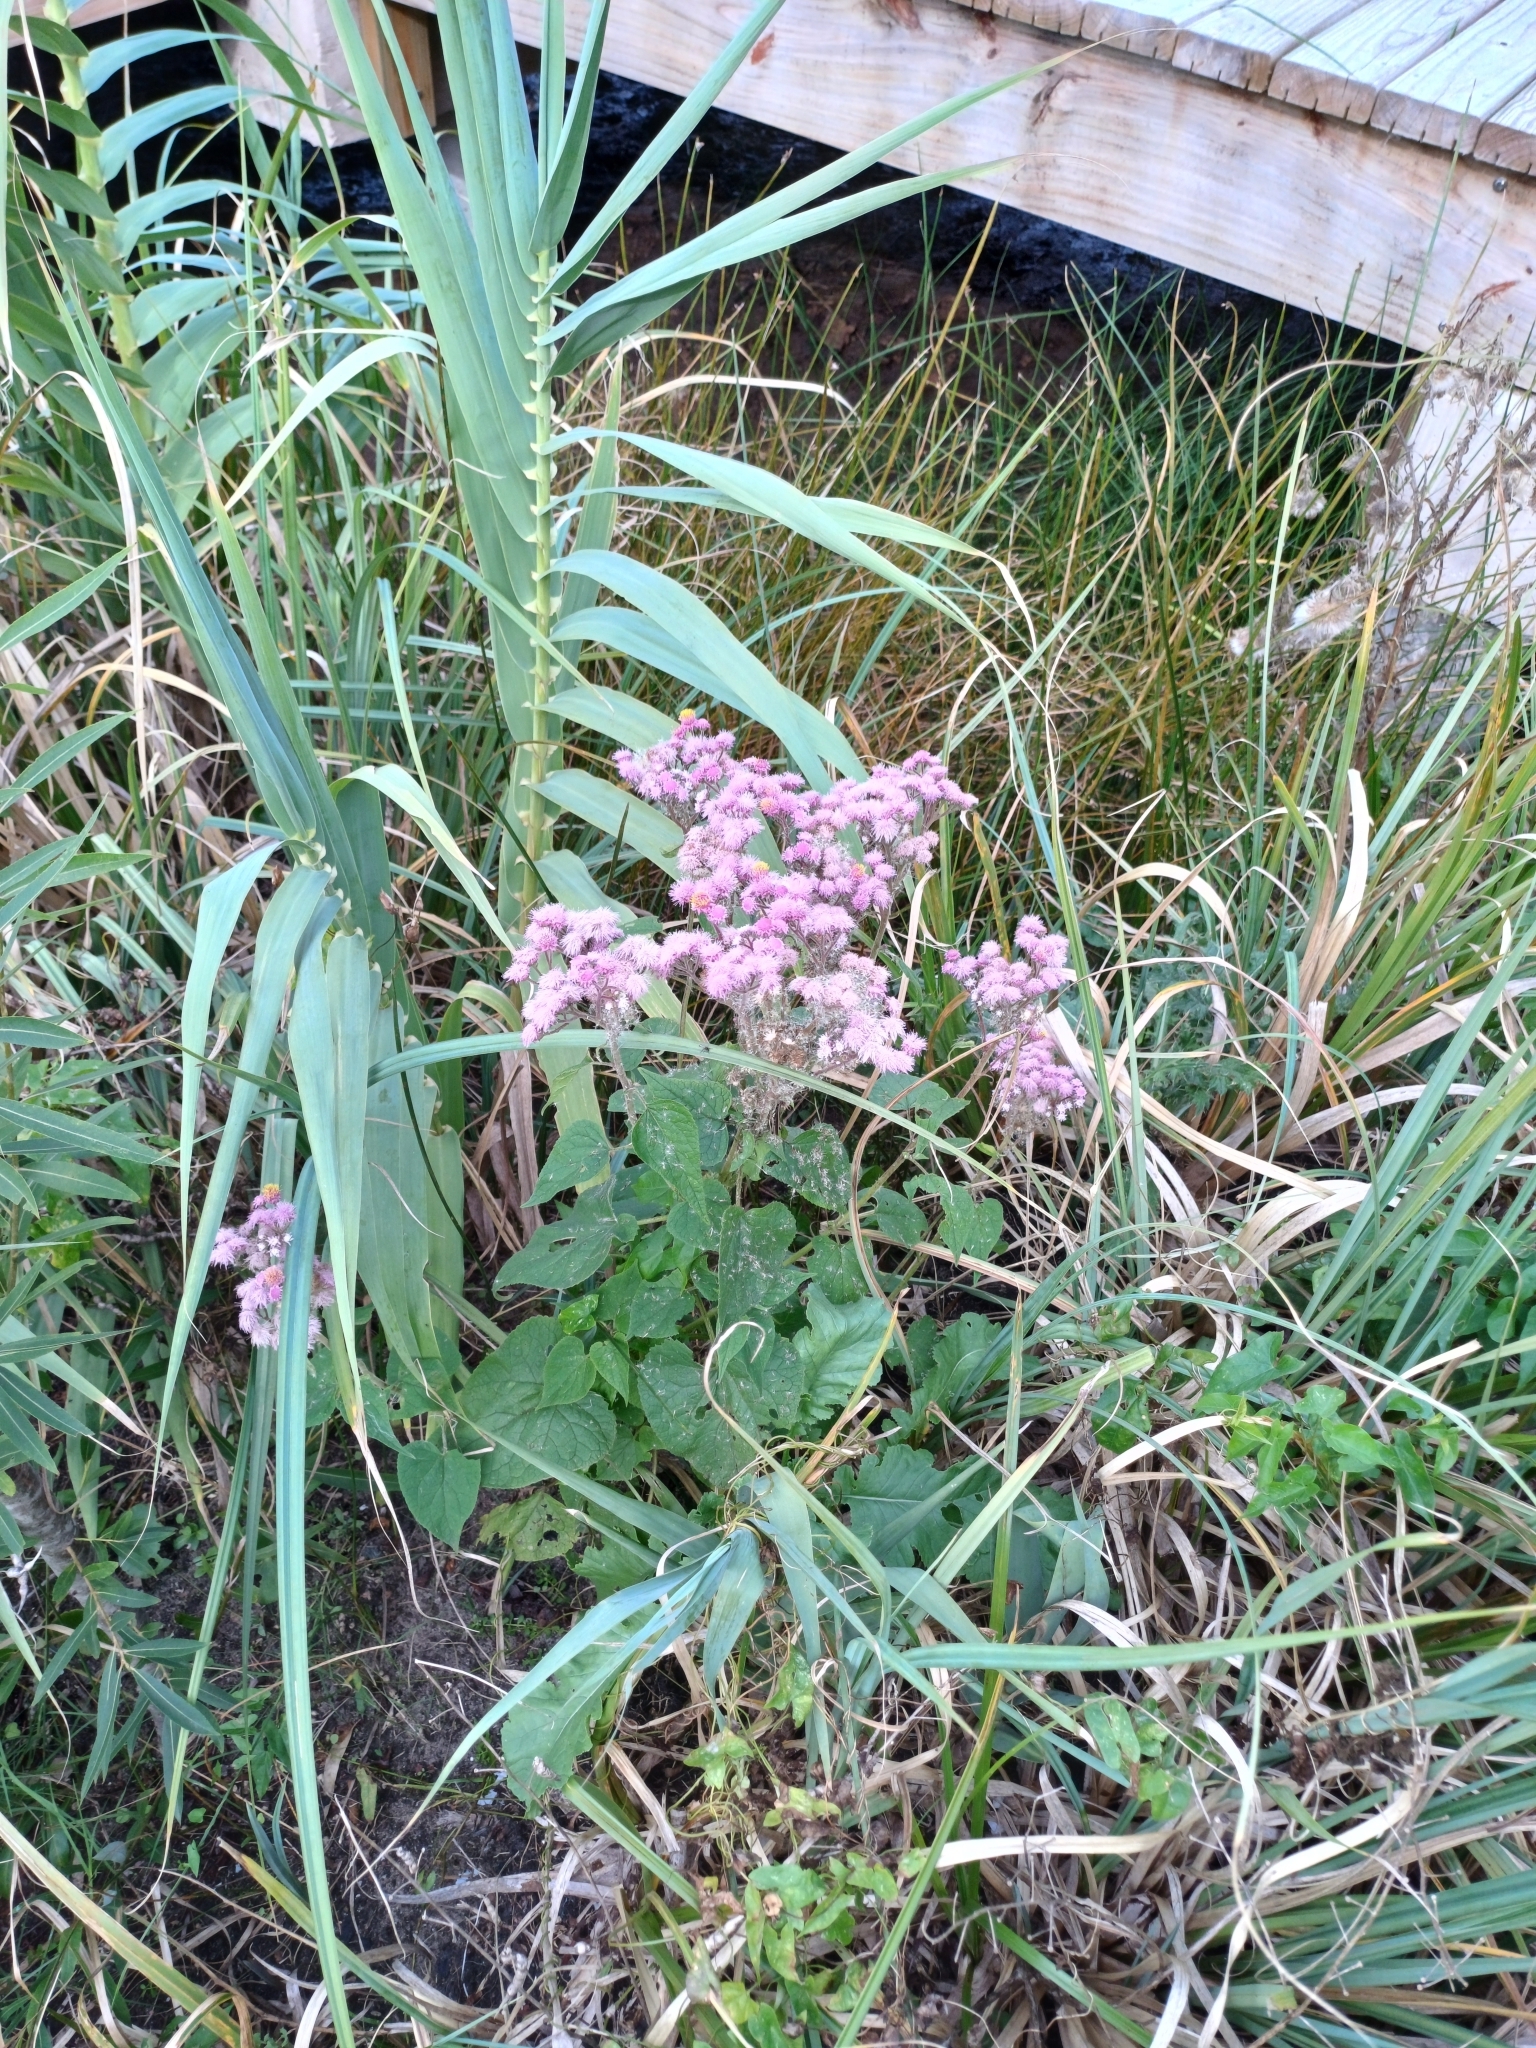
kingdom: Plantae
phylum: Tracheophyta
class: Magnoliopsida
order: Asterales
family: Asteraceae
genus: Urolepis
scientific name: Urolepis hecatantha
